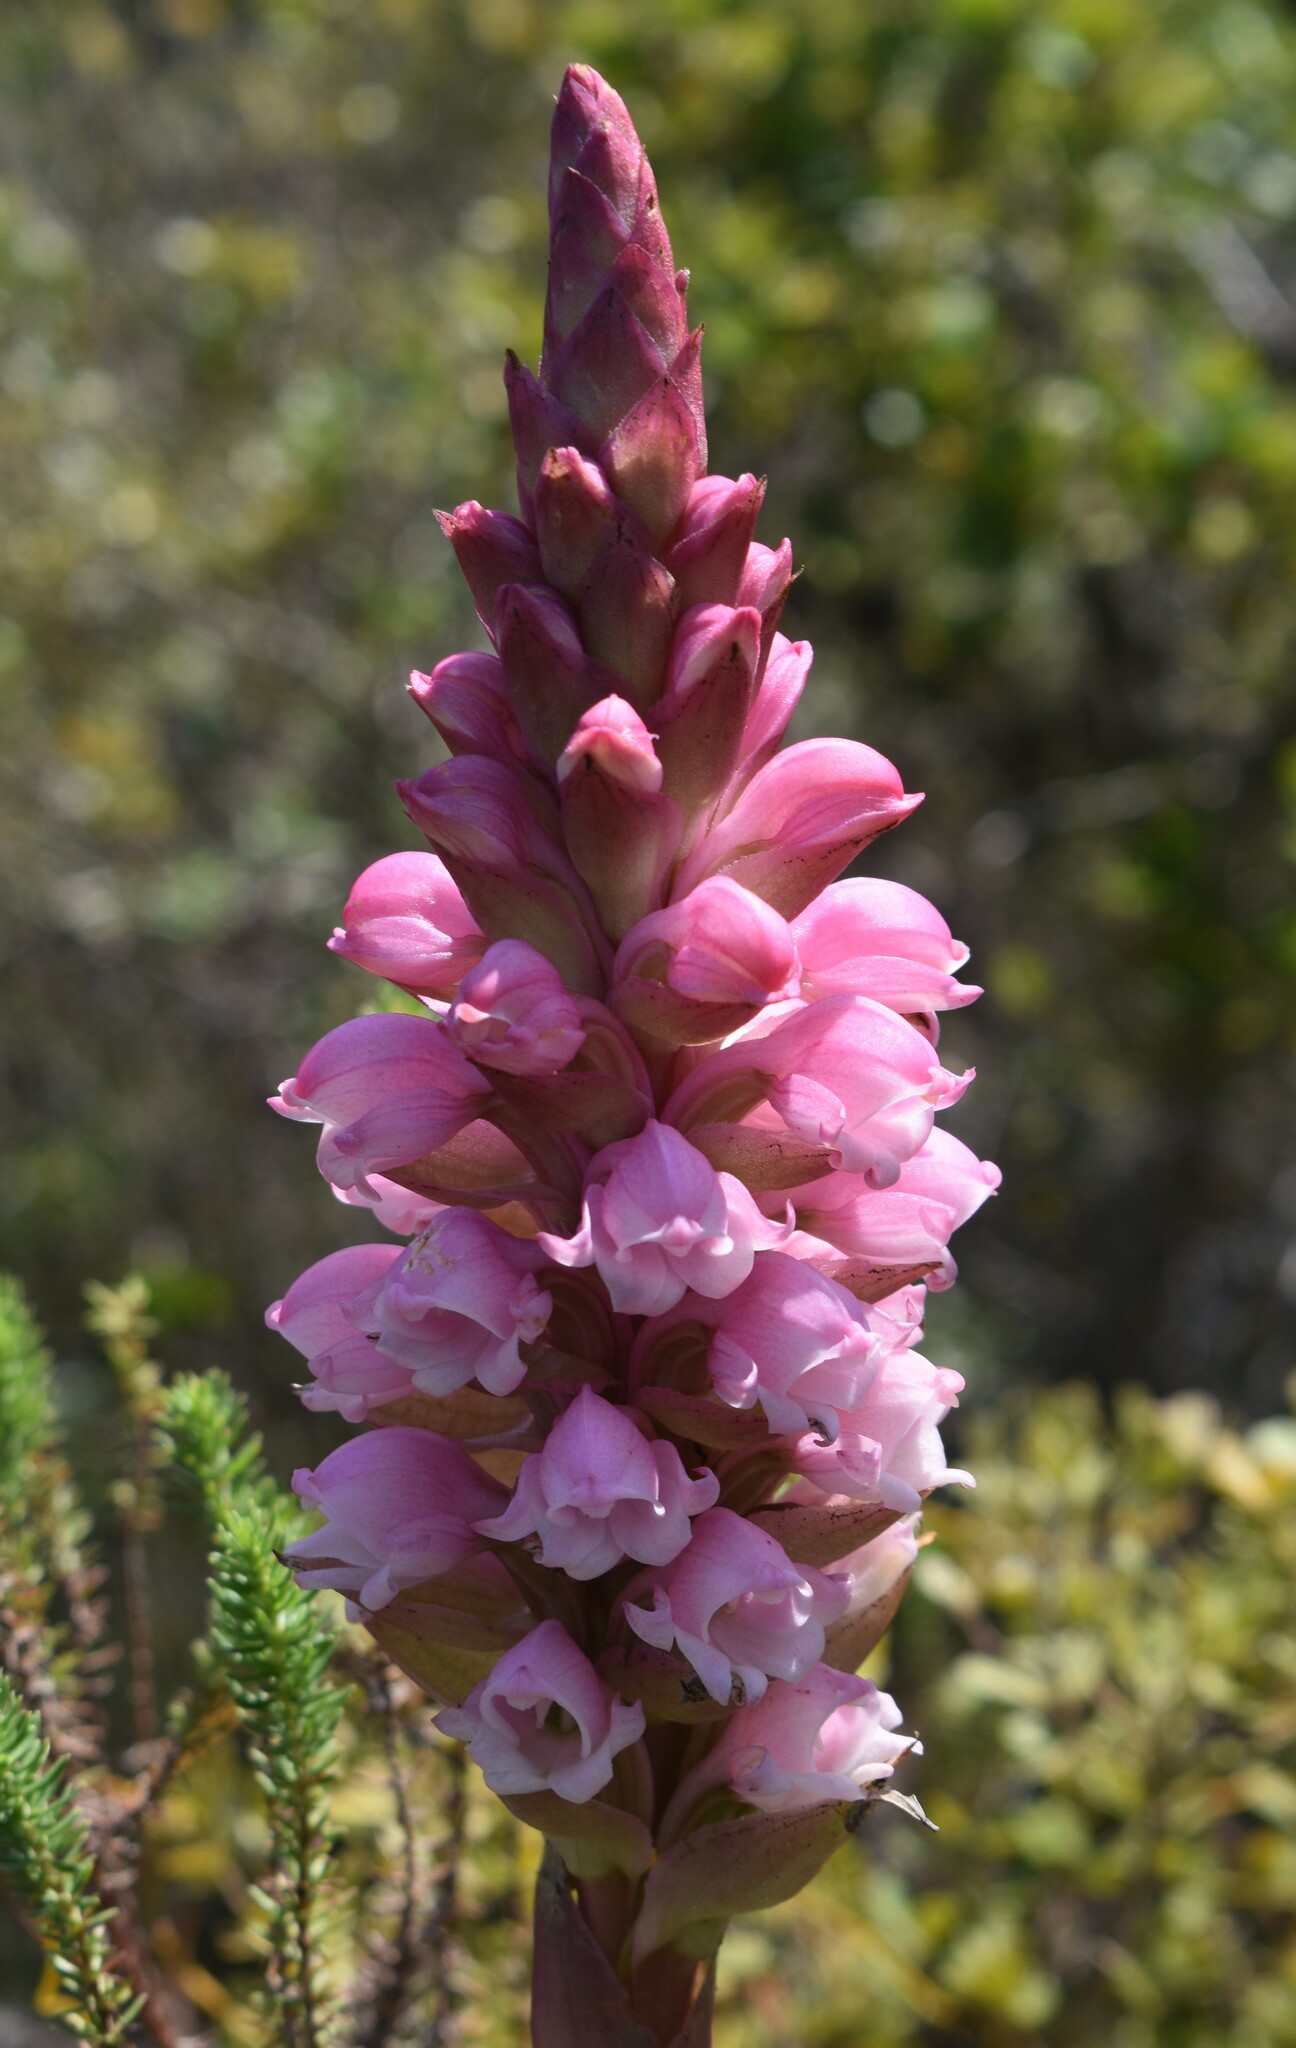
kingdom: Plantae
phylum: Tracheophyta
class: Liliopsida
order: Asparagales
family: Orchidaceae
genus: Satyrium
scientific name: Satyrium carneum
